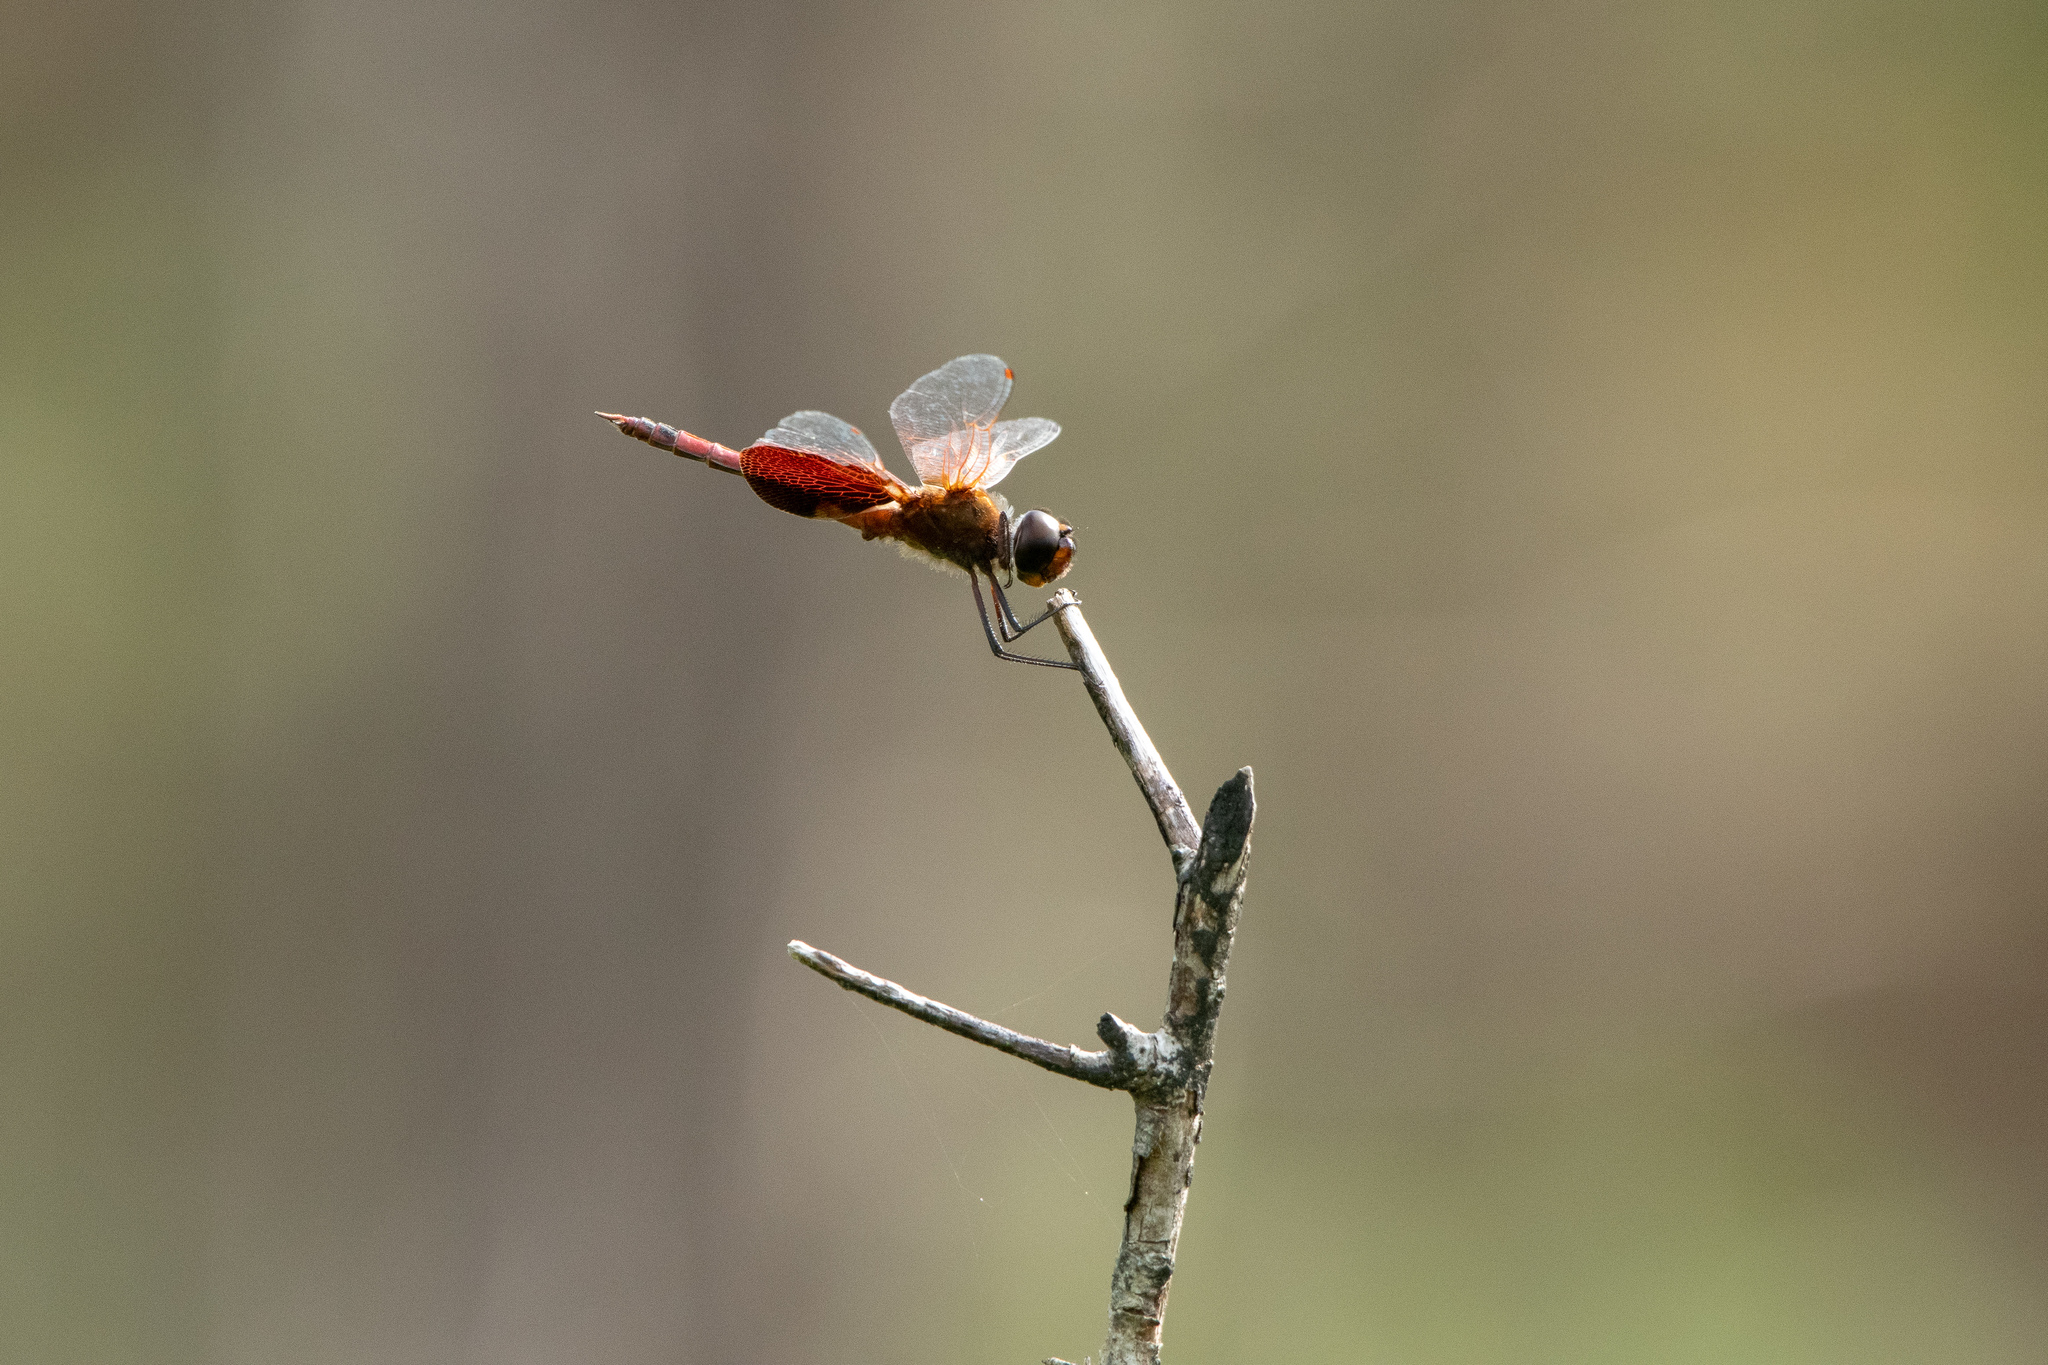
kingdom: Animalia
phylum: Arthropoda
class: Insecta
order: Odonata
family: Libellulidae
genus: Tramea
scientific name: Tramea carolina
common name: Carolina saddlebags
